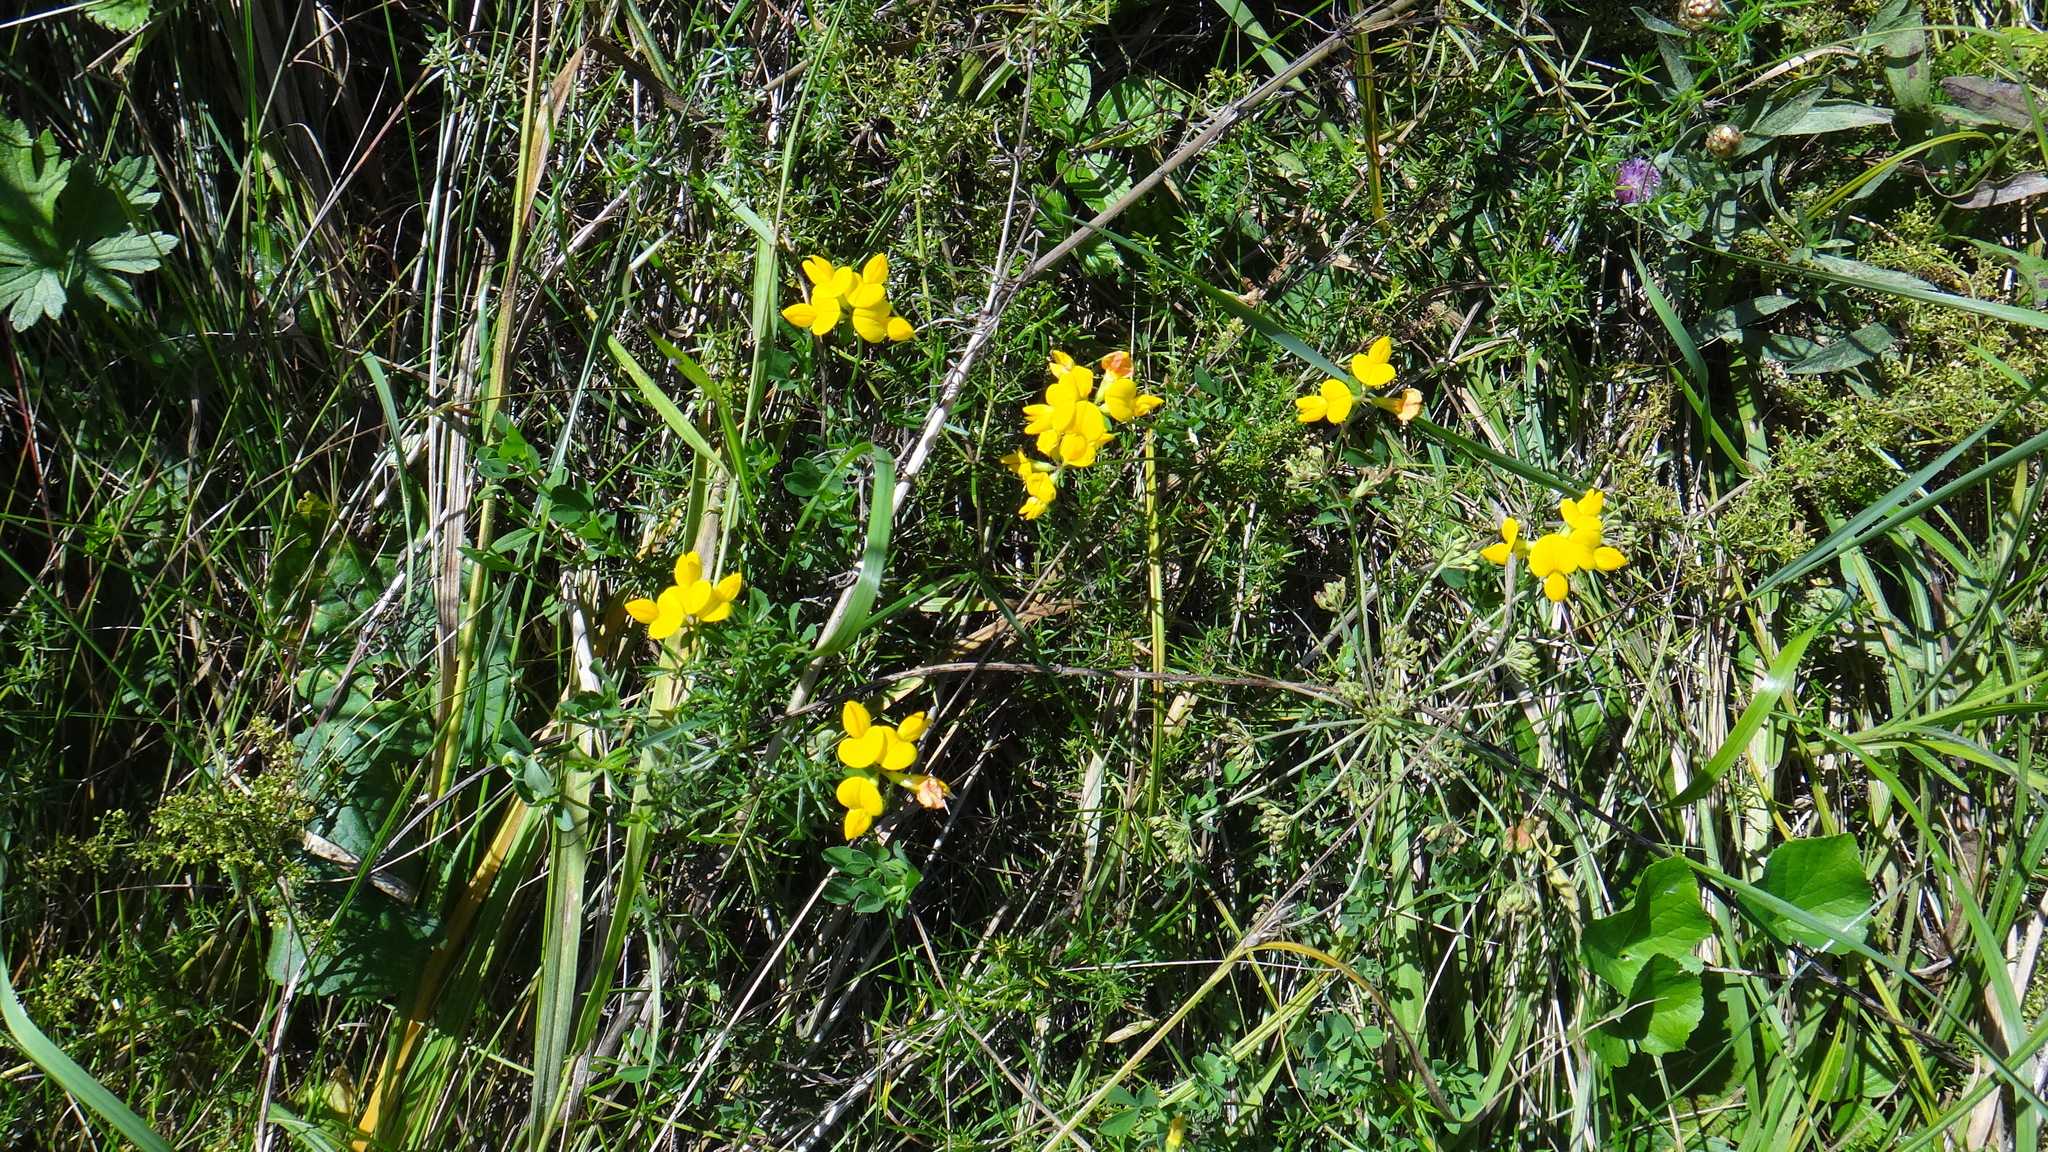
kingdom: Plantae
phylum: Tracheophyta
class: Magnoliopsida
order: Fabales
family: Fabaceae
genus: Lotus
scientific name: Lotus corniculatus
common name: Common bird's-foot-trefoil
